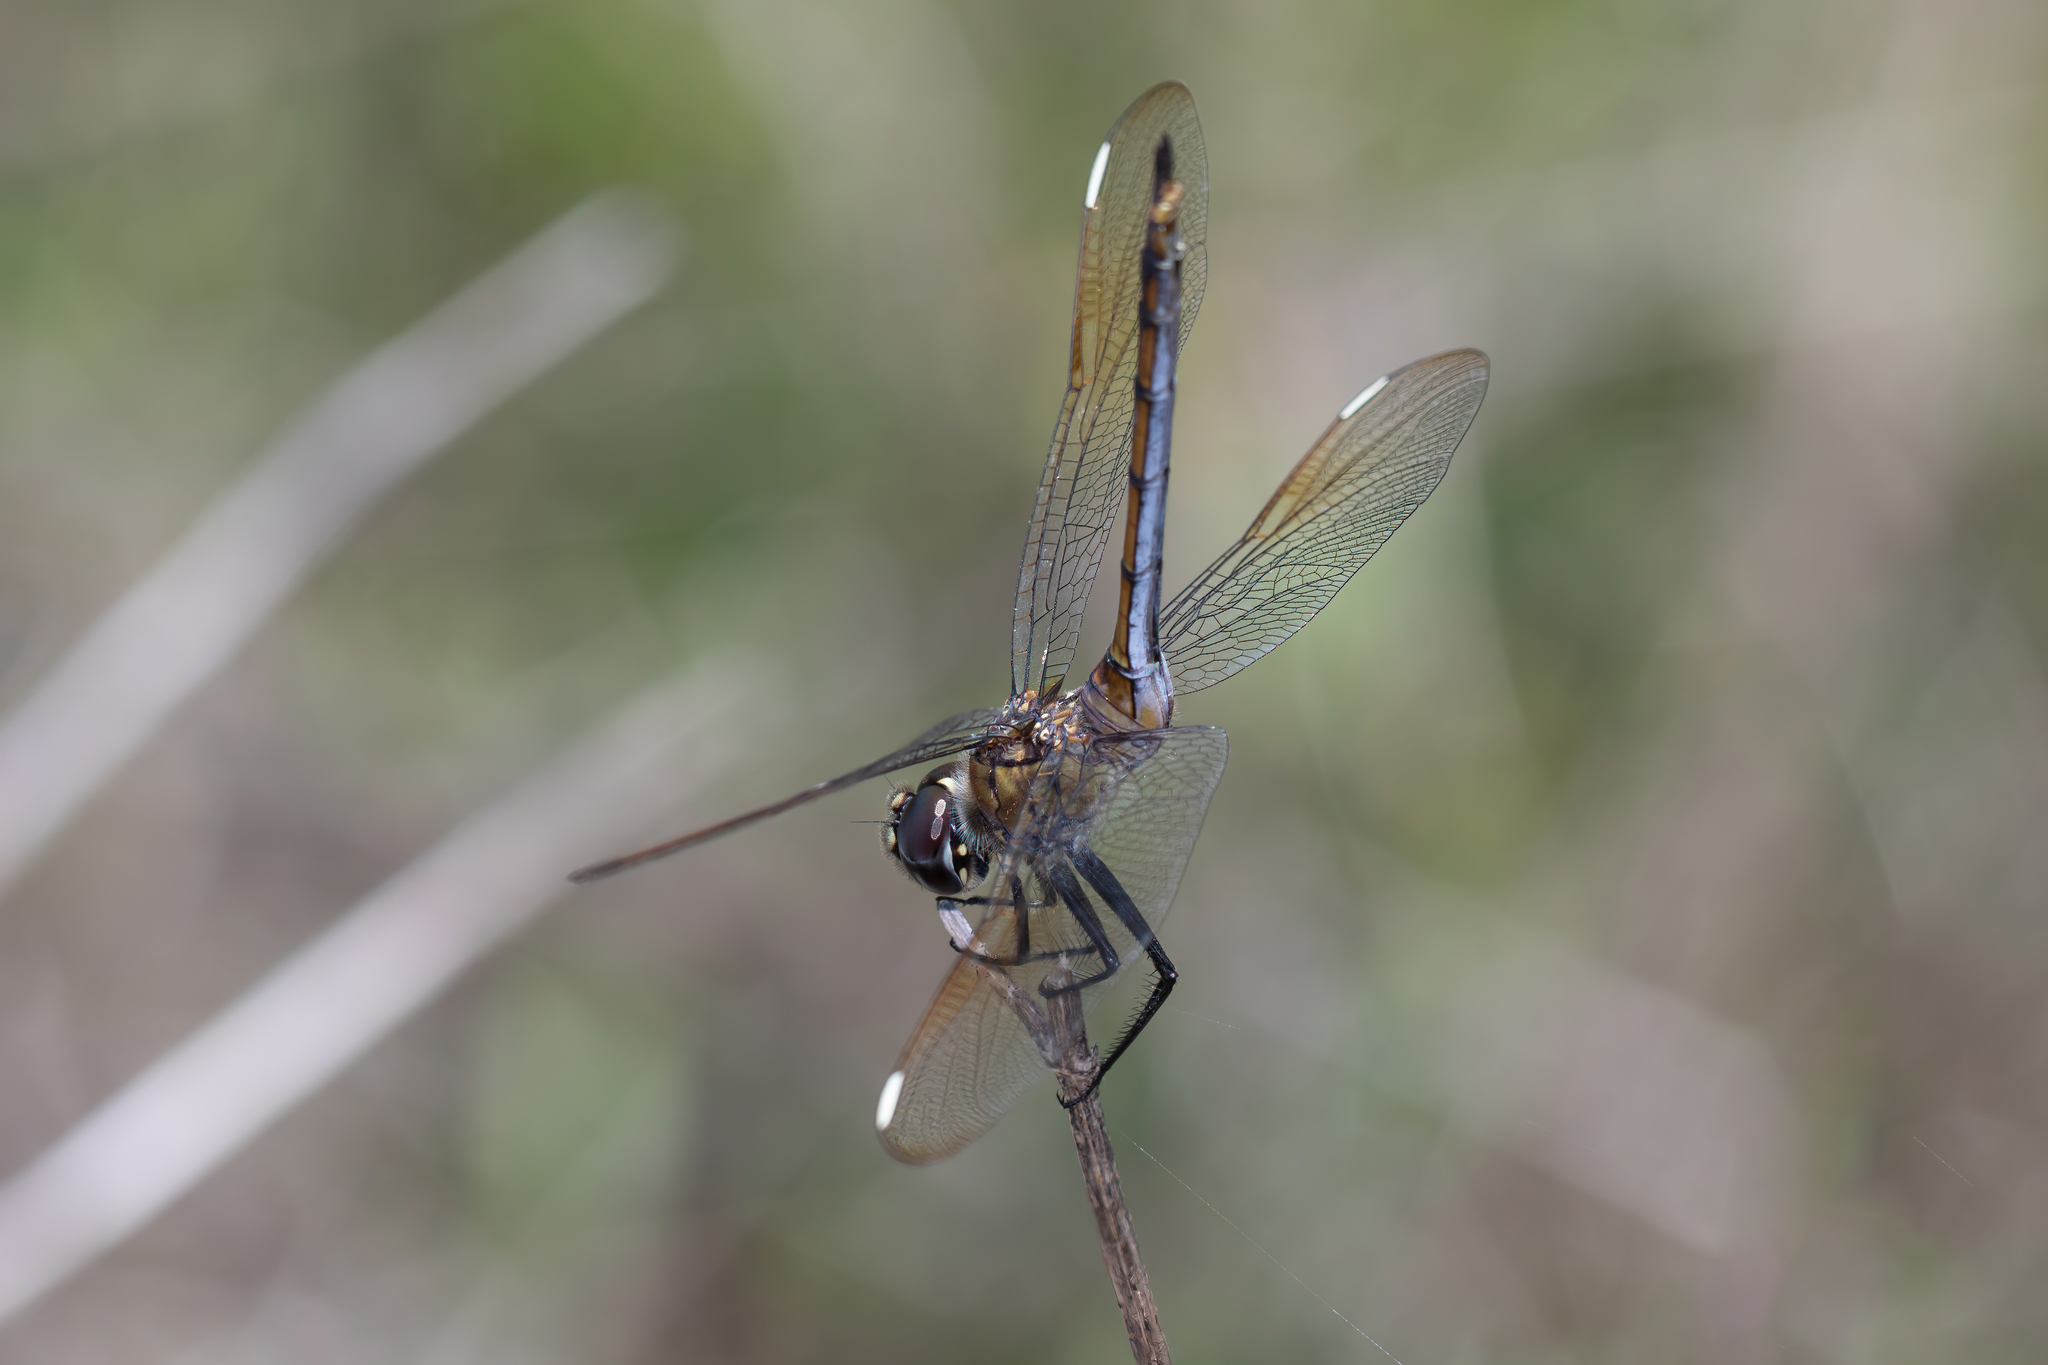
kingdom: Animalia
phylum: Arthropoda
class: Insecta
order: Odonata
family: Libellulidae
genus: Brachymesia
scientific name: Brachymesia gravida
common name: Four-spotted pennant
